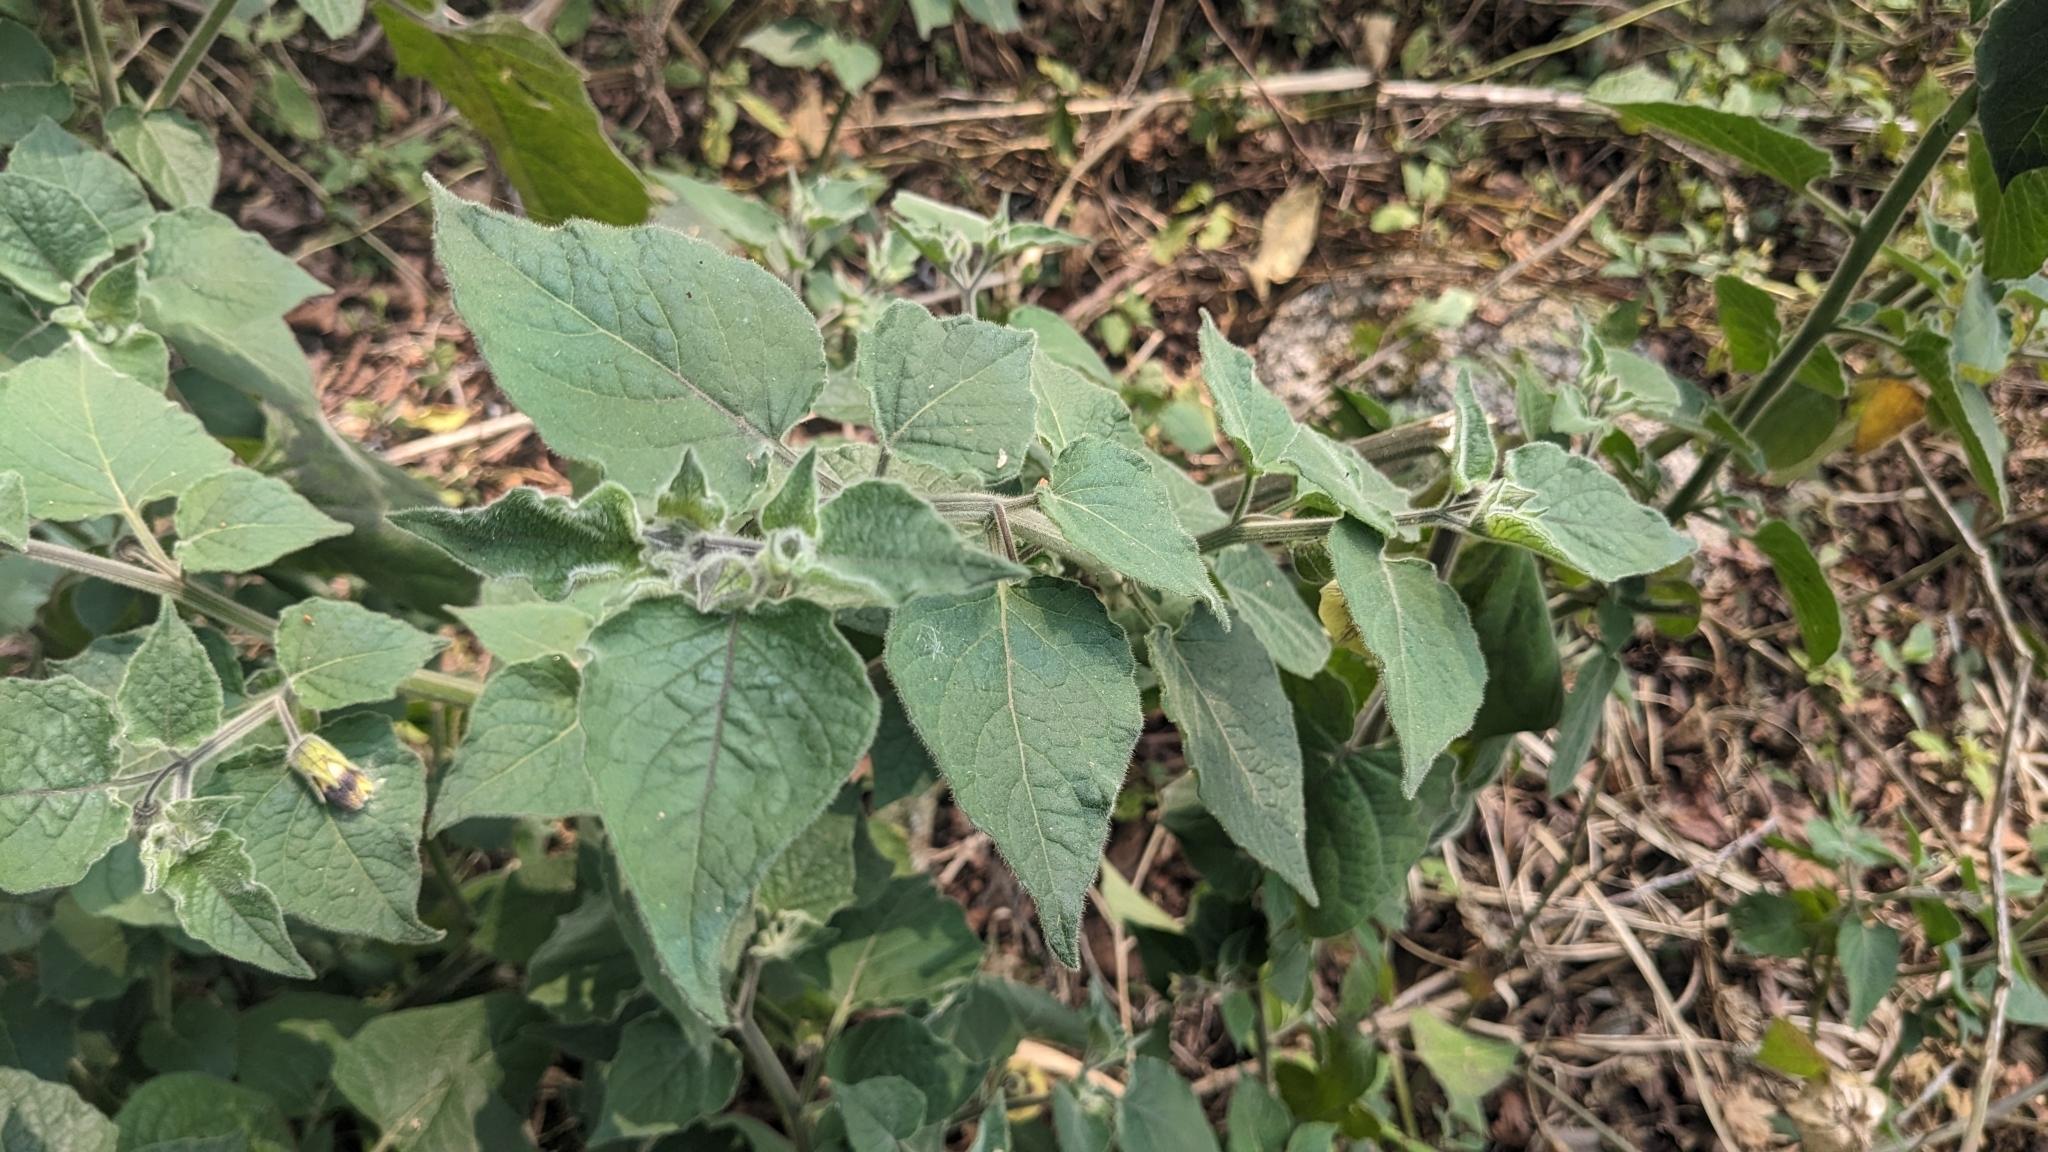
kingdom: Plantae
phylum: Tracheophyta
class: Magnoliopsida
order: Solanales
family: Solanaceae
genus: Physalis
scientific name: Physalis peruviana
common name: Cape-gooseberry
